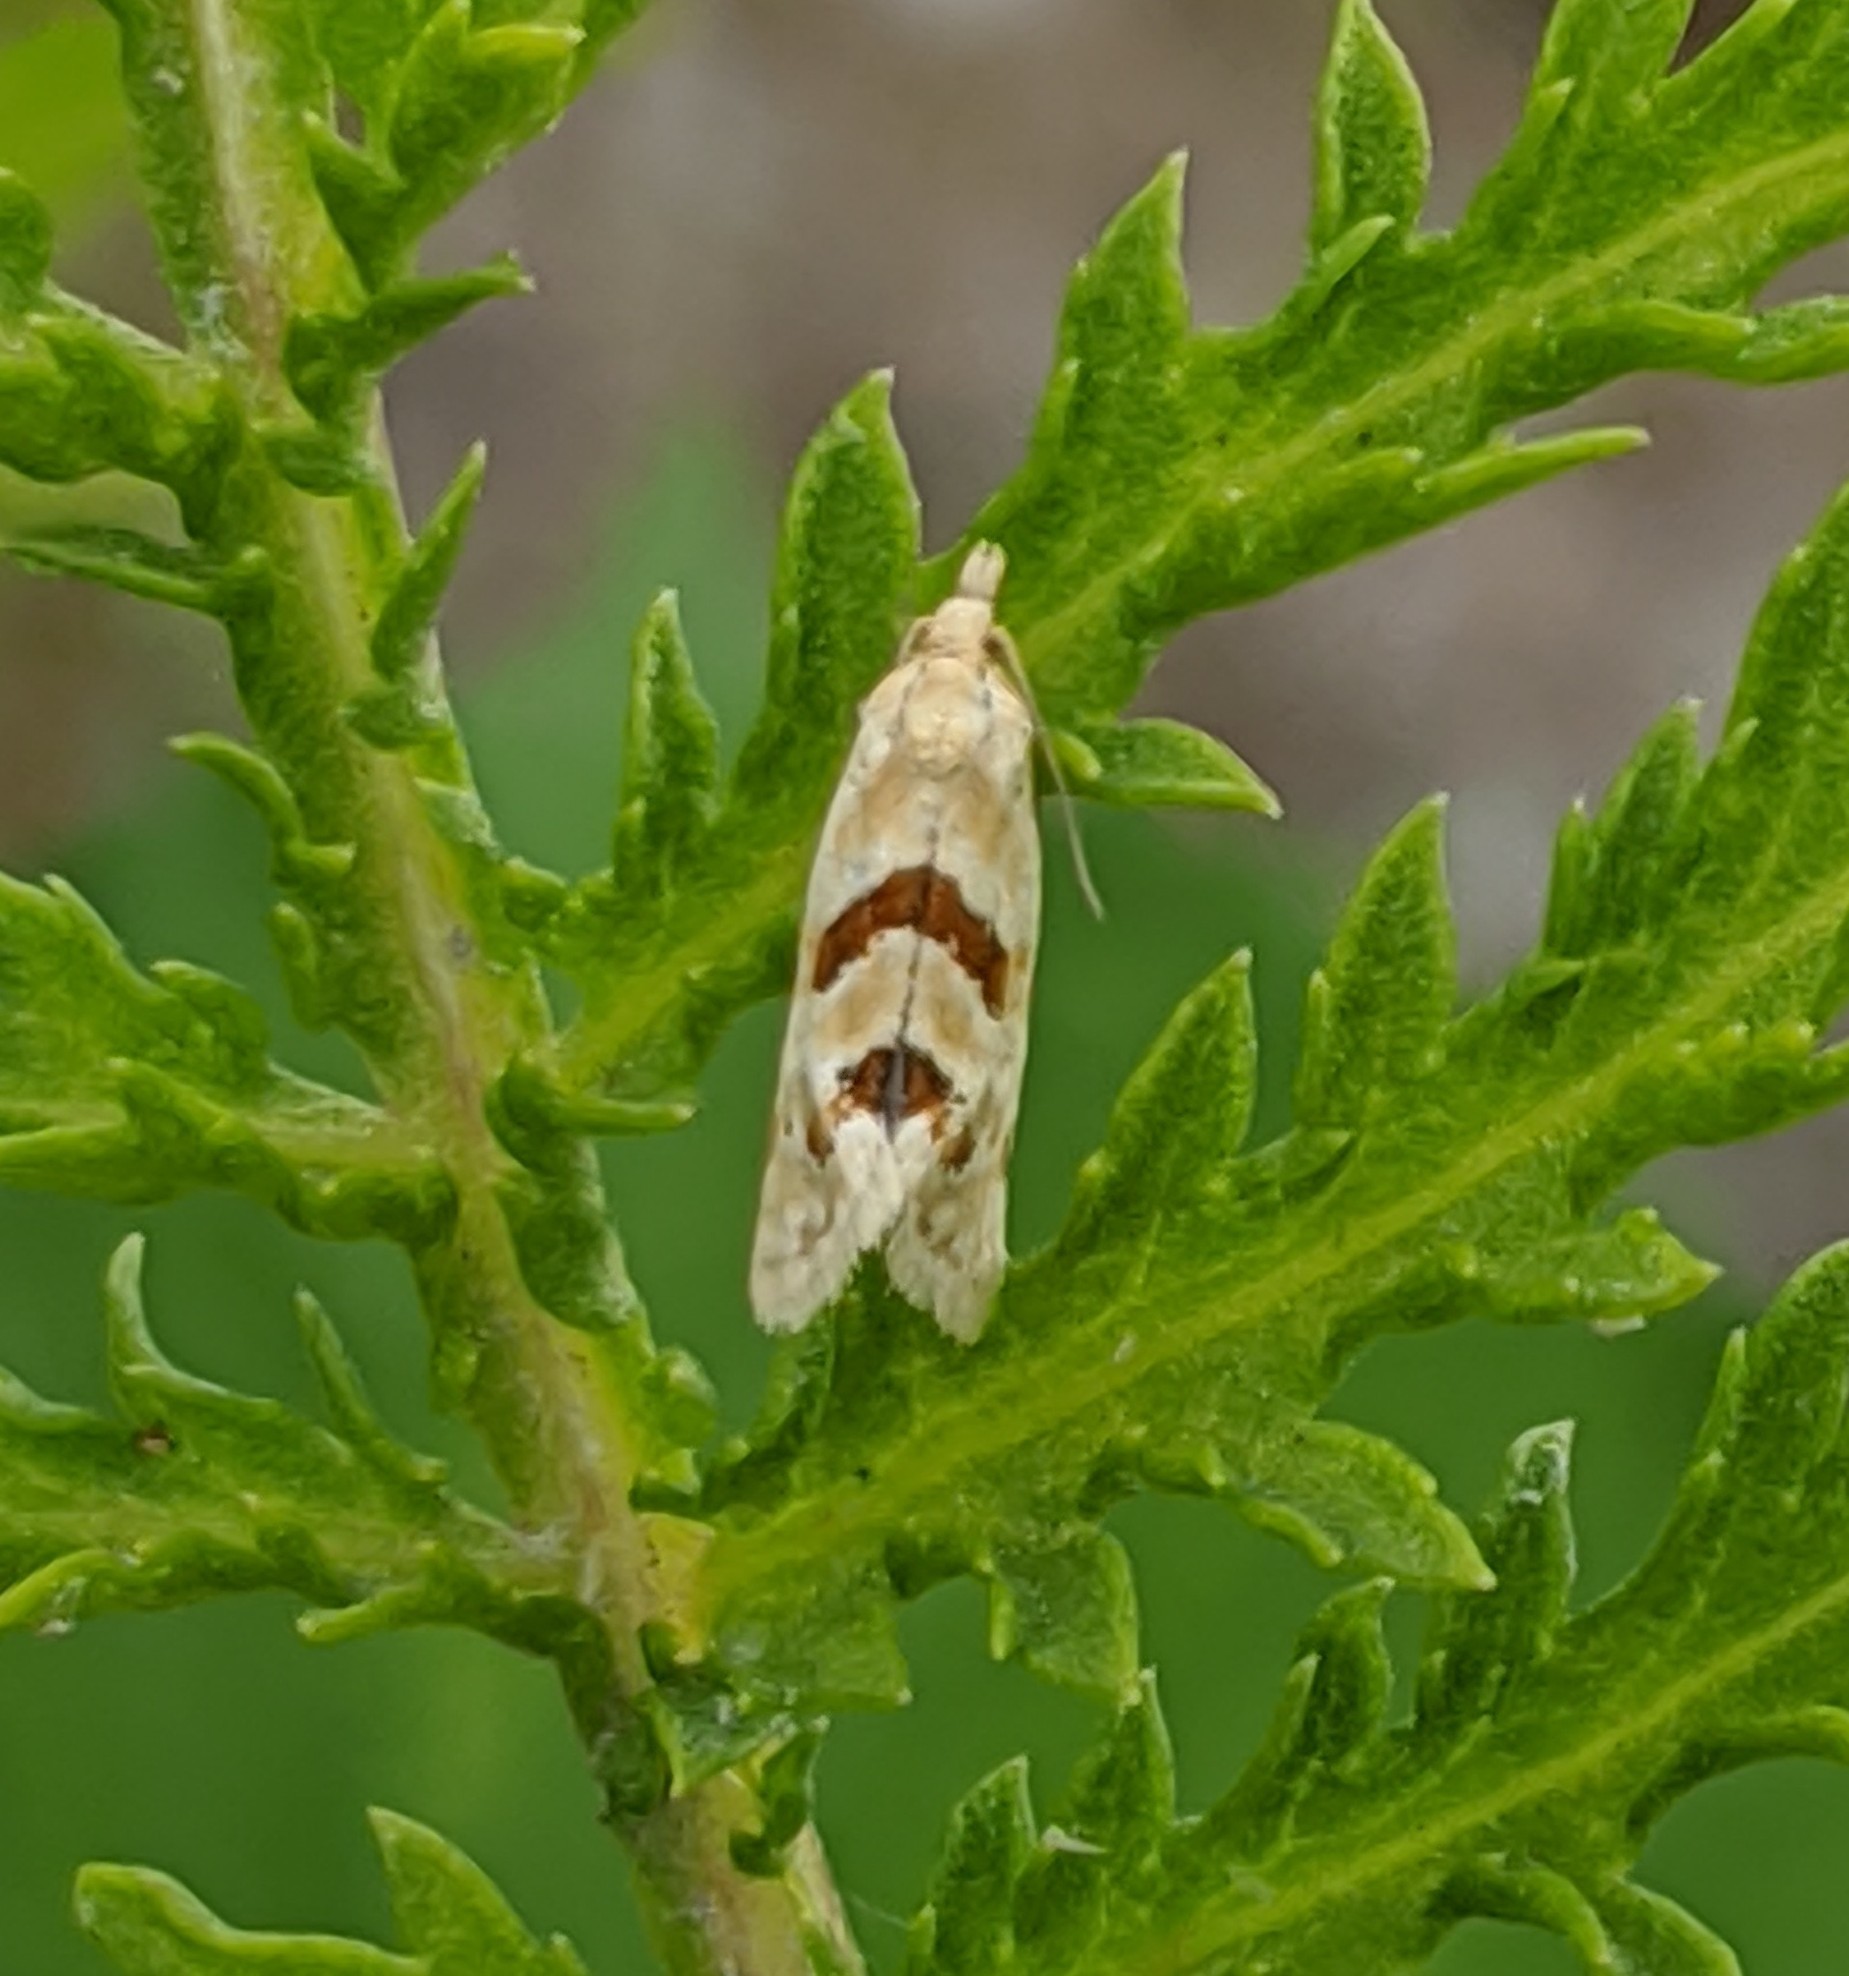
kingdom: Animalia
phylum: Arthropoda
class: Insecta
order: Lepidoptera
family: Tortricidae
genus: Aethes
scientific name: Aethes smeathmanniana
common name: Yarrow conch
